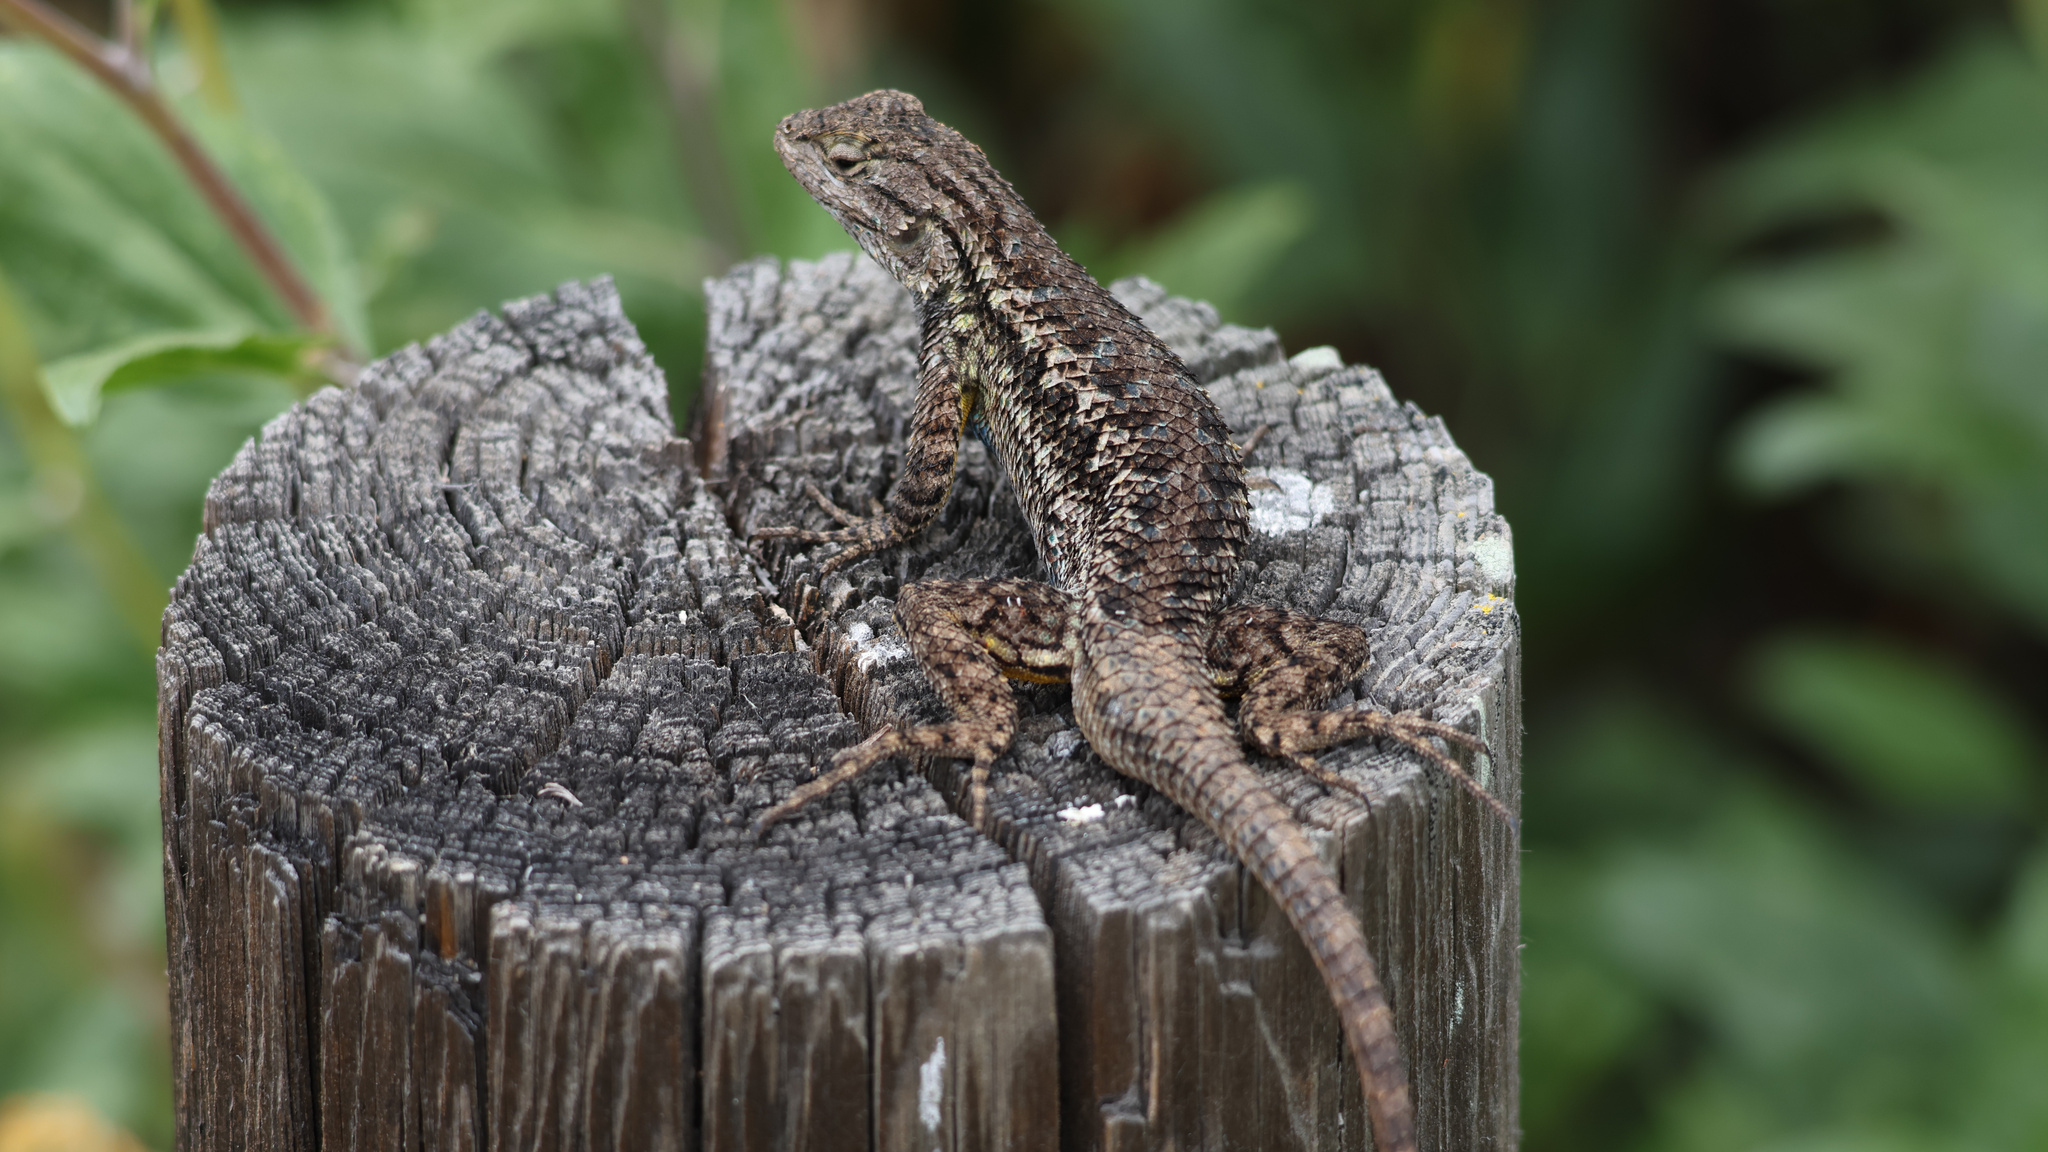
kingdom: Animalia
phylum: Chordata
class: Squamata
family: Phrynosomatidae
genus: Sceloporus
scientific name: Sceloporus occidentalis
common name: Western fence lizard
